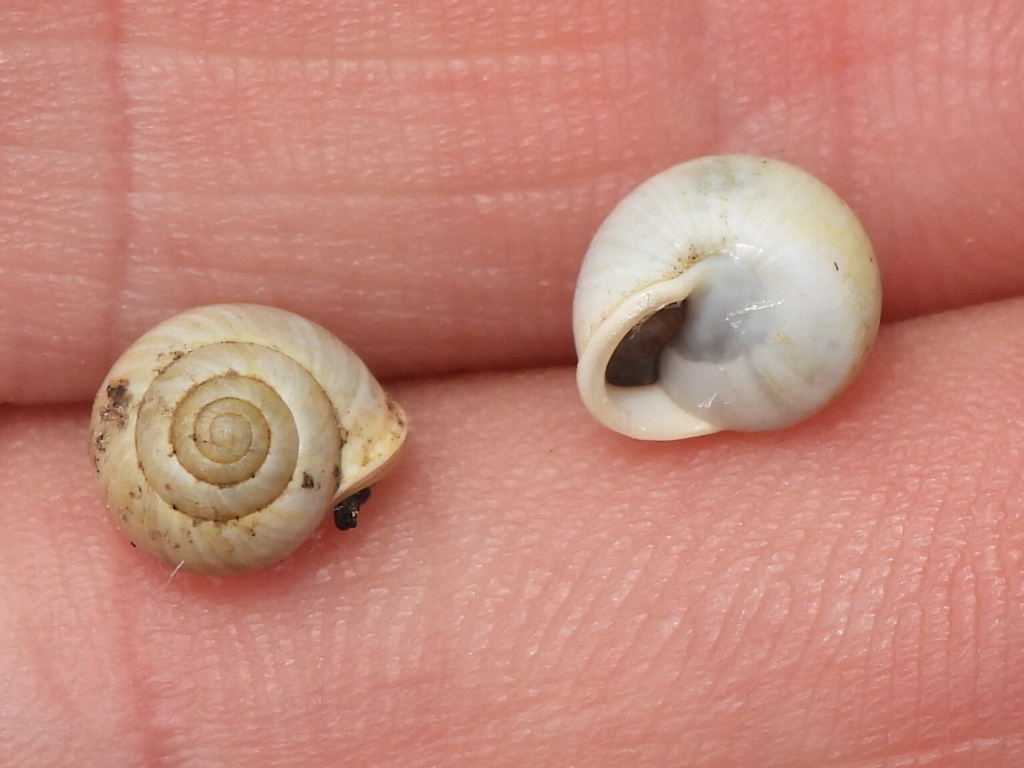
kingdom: Animalia
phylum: Mollusca
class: Gastropoda
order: Cycloneritida
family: Helicinidae
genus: Helicina
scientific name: Helicina orbiculata
